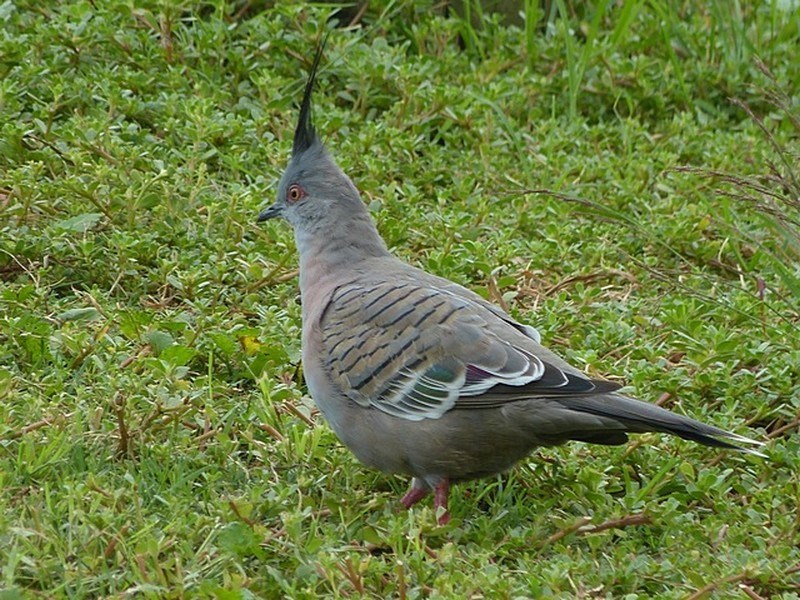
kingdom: Animalia
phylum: Chordata
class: Aves
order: Columbiformes
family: Columbidae
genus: Ocyphaps
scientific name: Ocyphaps lophotes
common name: Crested pigeon
